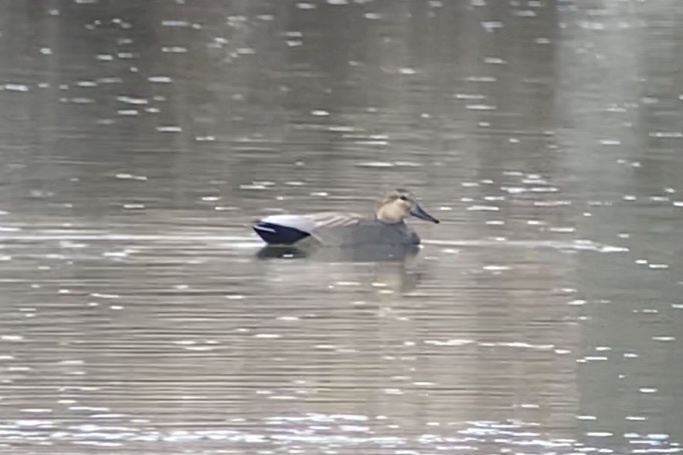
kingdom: Animalia
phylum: Chordata
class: Aves
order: Anseriformes
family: Anatidae
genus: Mareca
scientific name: Mareca strepera
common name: Gadwall
